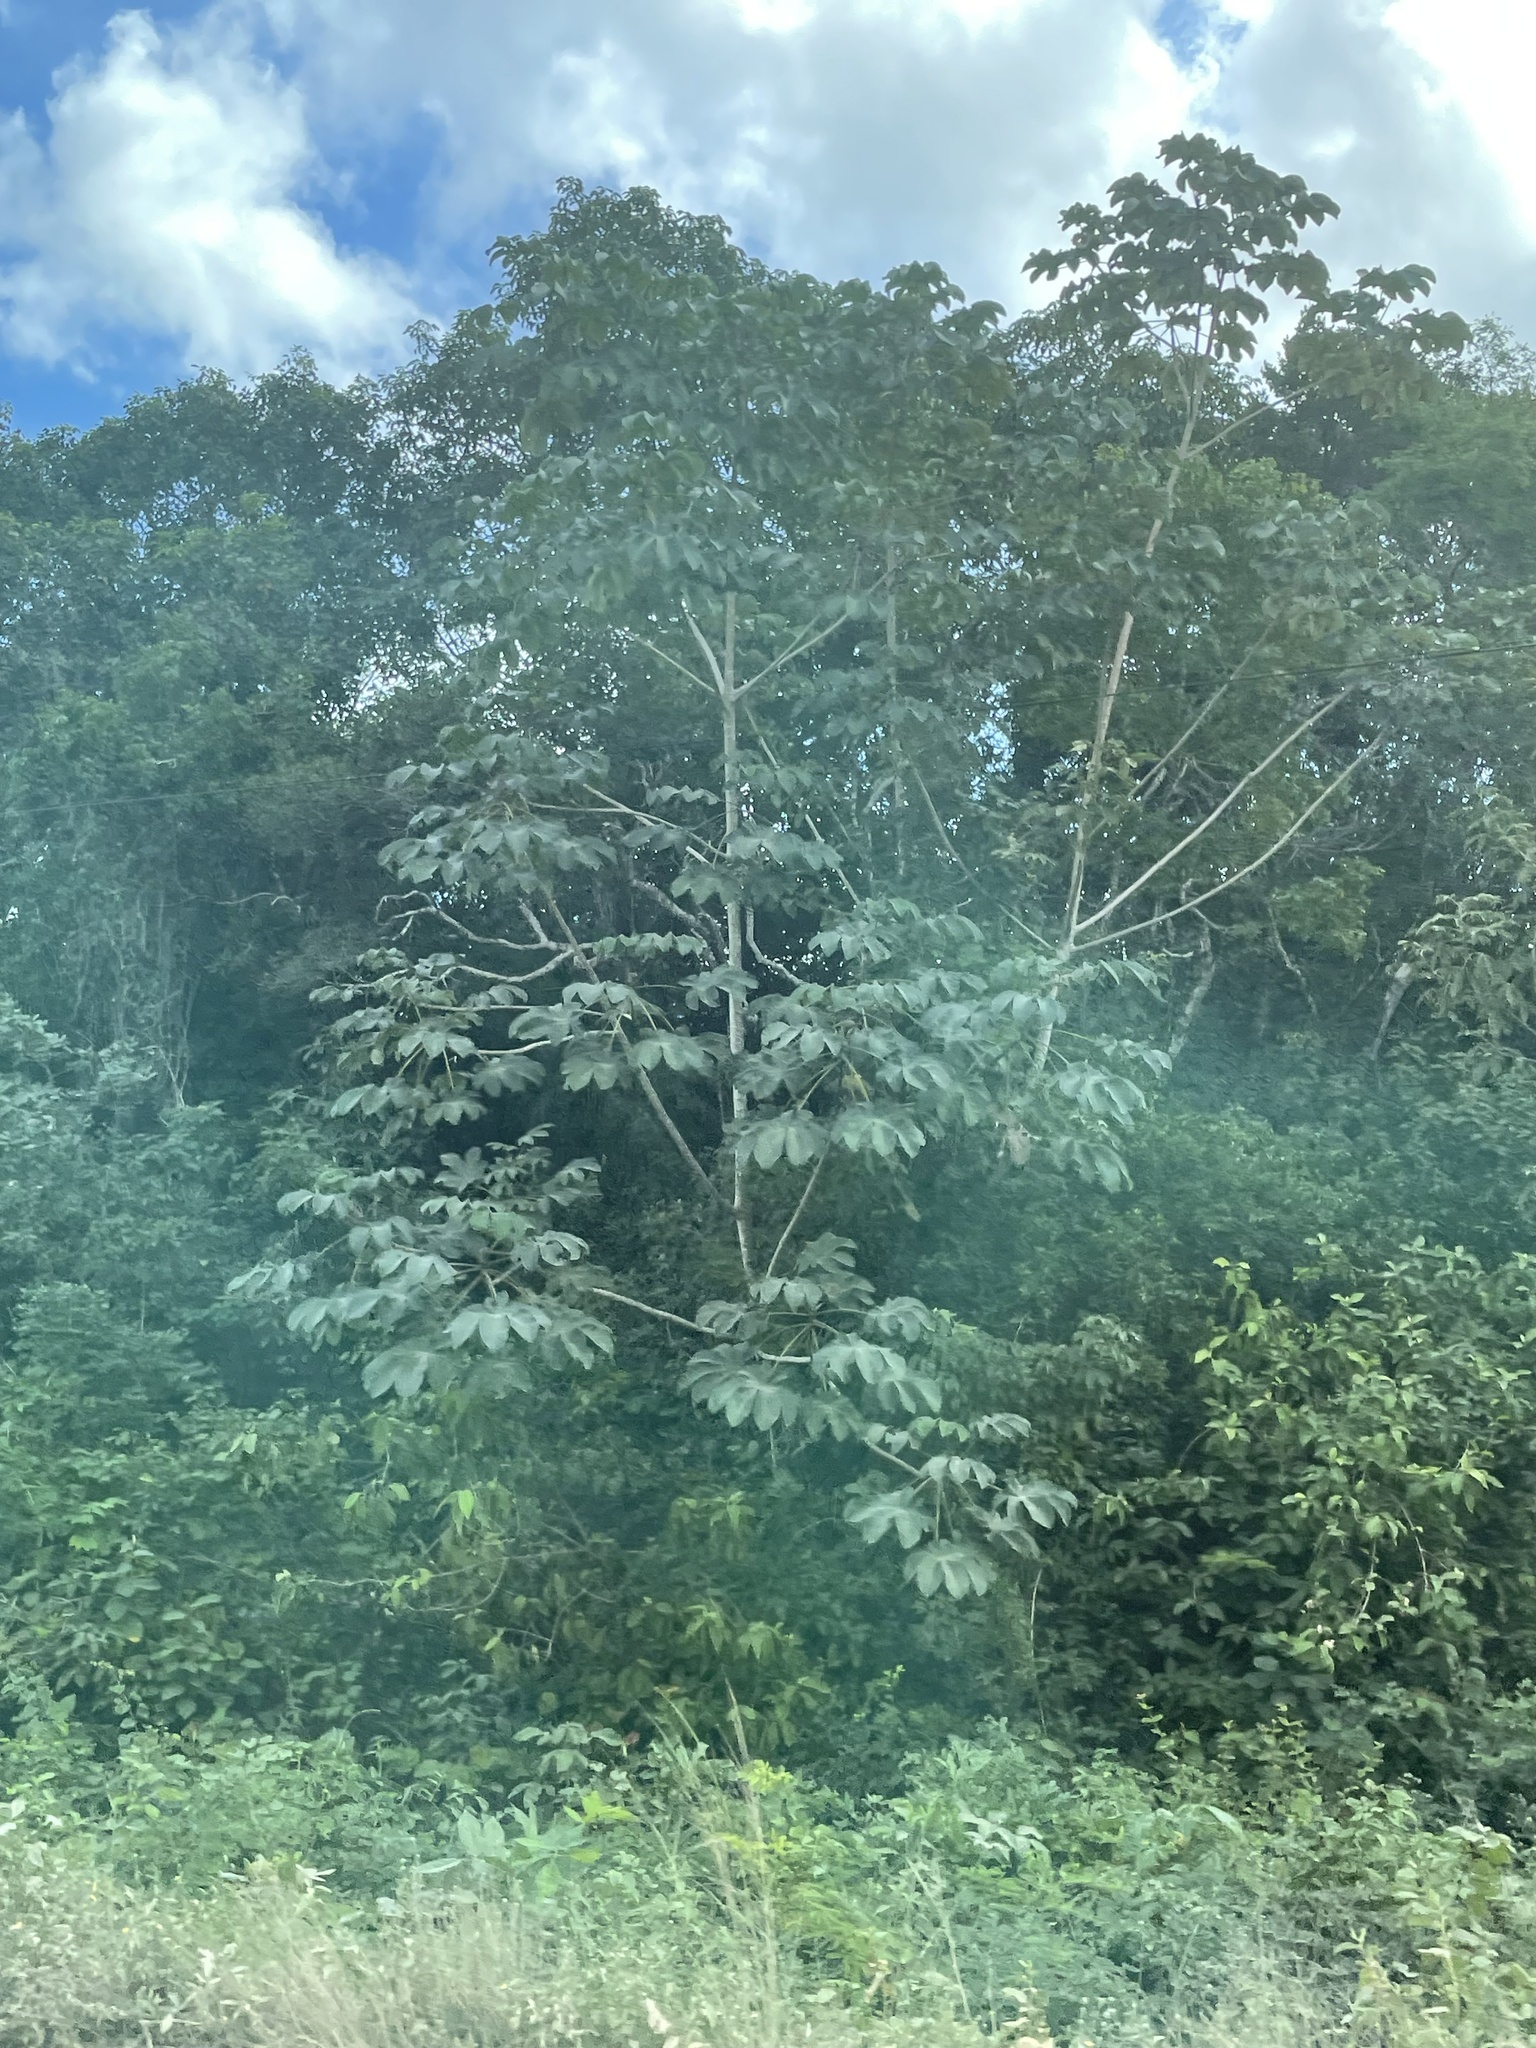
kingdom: Plantae
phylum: Tracheophyta
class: Magnoliopsida
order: Rosales
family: Urticaceae
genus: Cecropia
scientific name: Cecropia peltata
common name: Trumpet-tree
